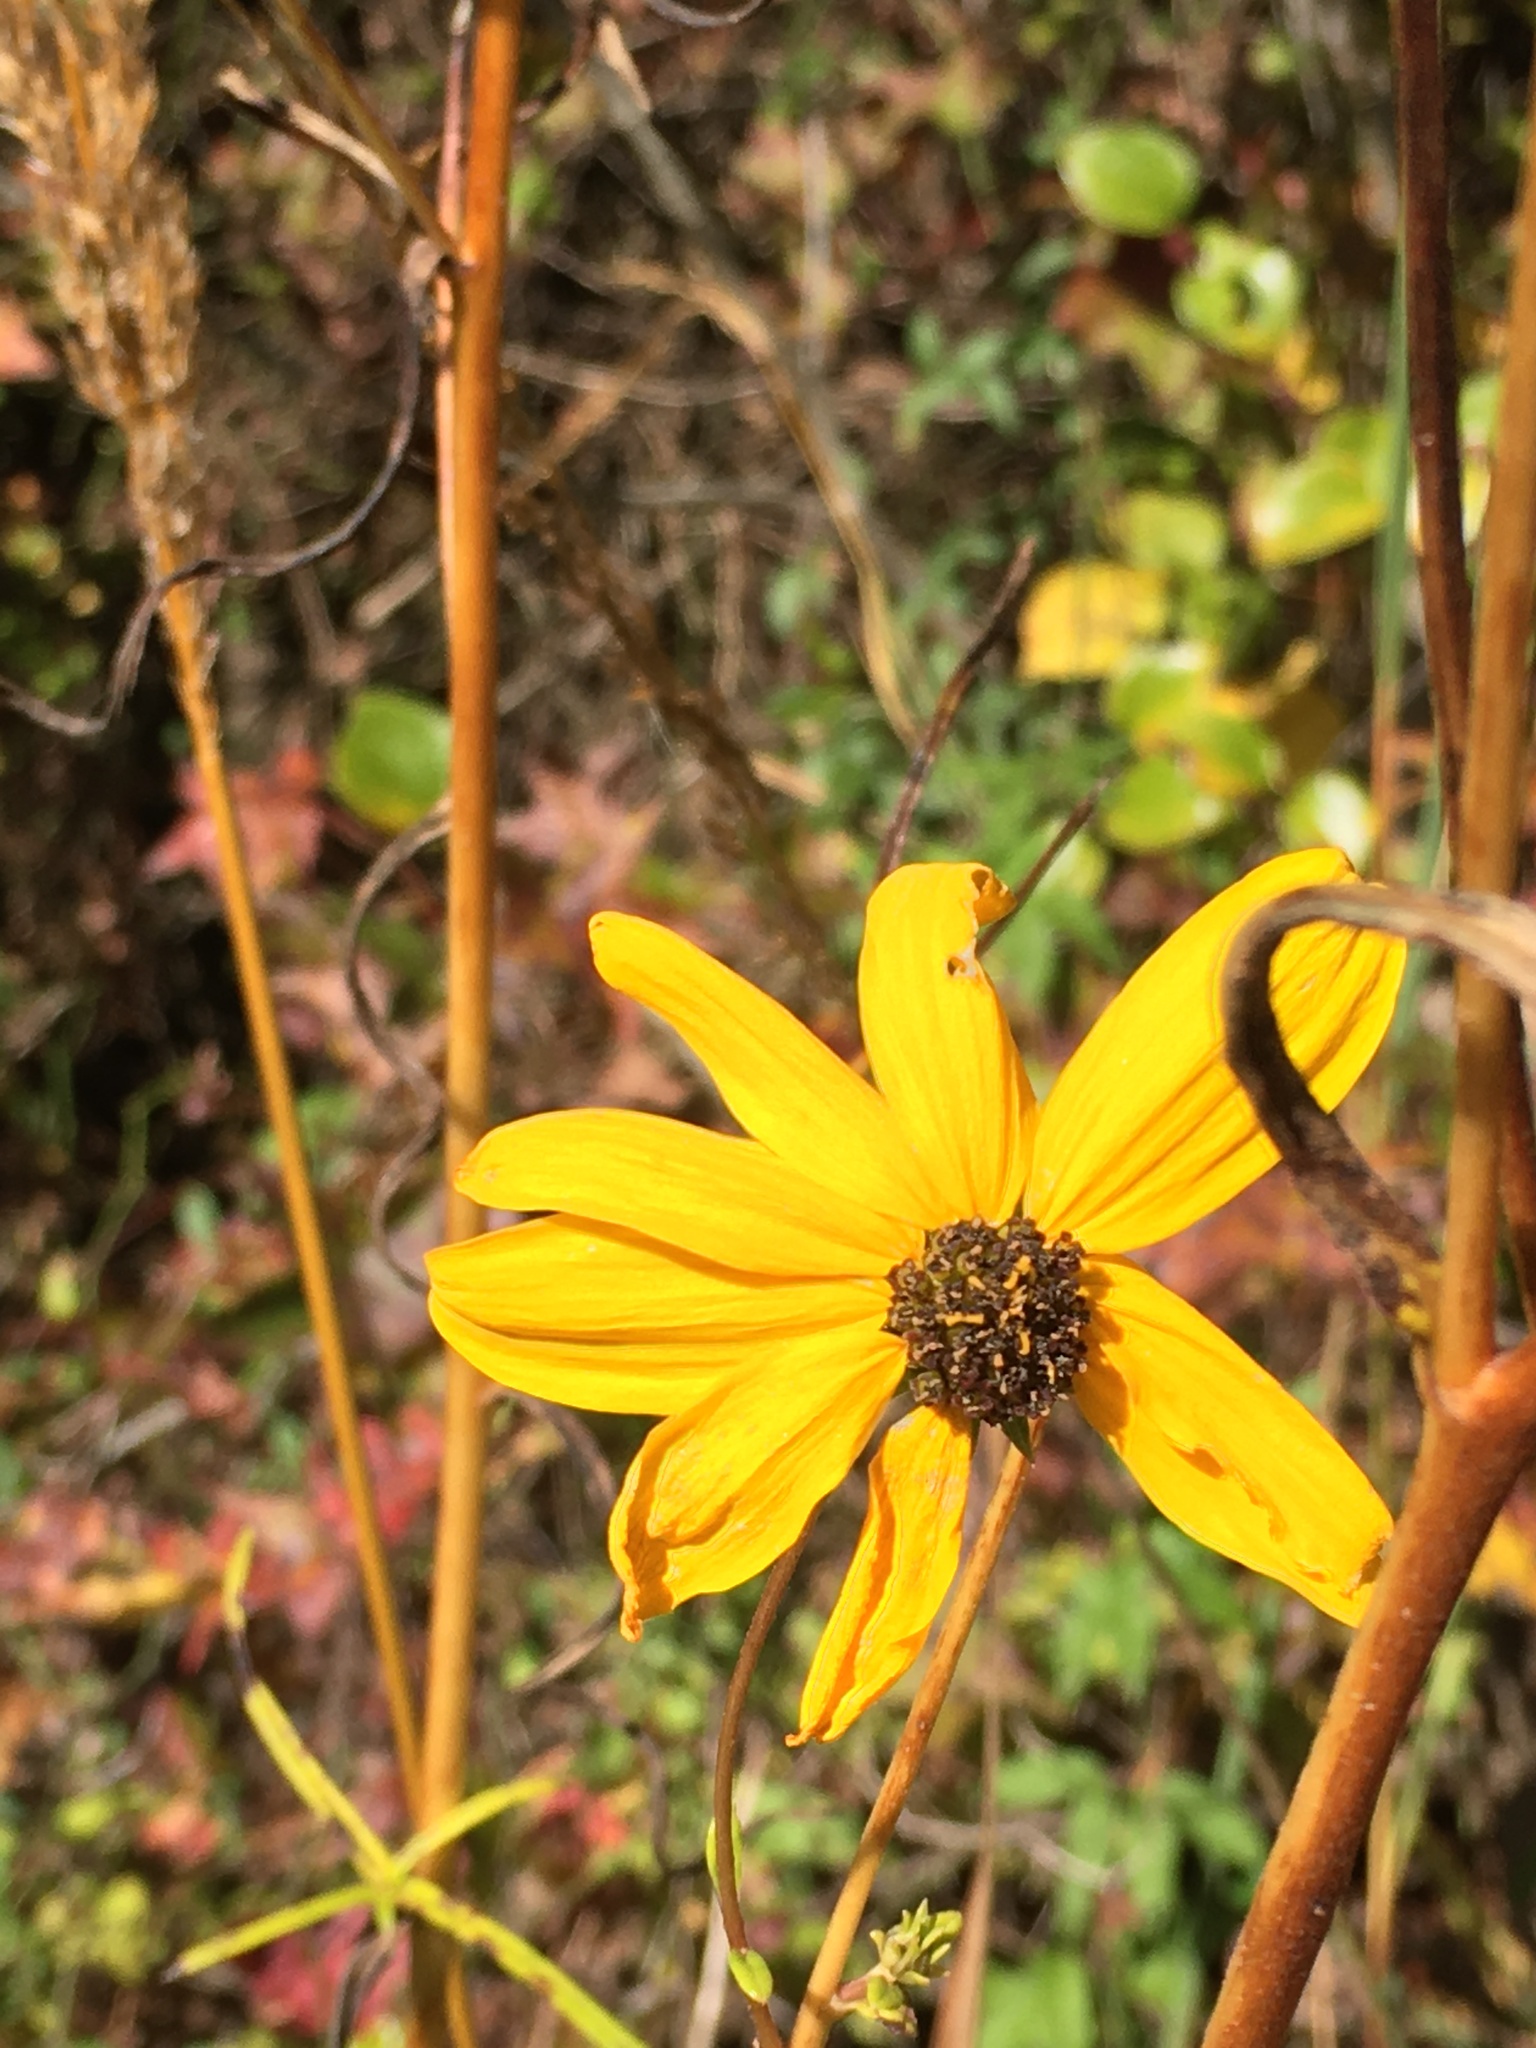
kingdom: Plantae
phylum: Tracheophyta
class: Magnoliopsida
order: Asterales
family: Asteraceae
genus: Helianthus
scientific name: Helianthus angustifolius
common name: Swamp sunflower
